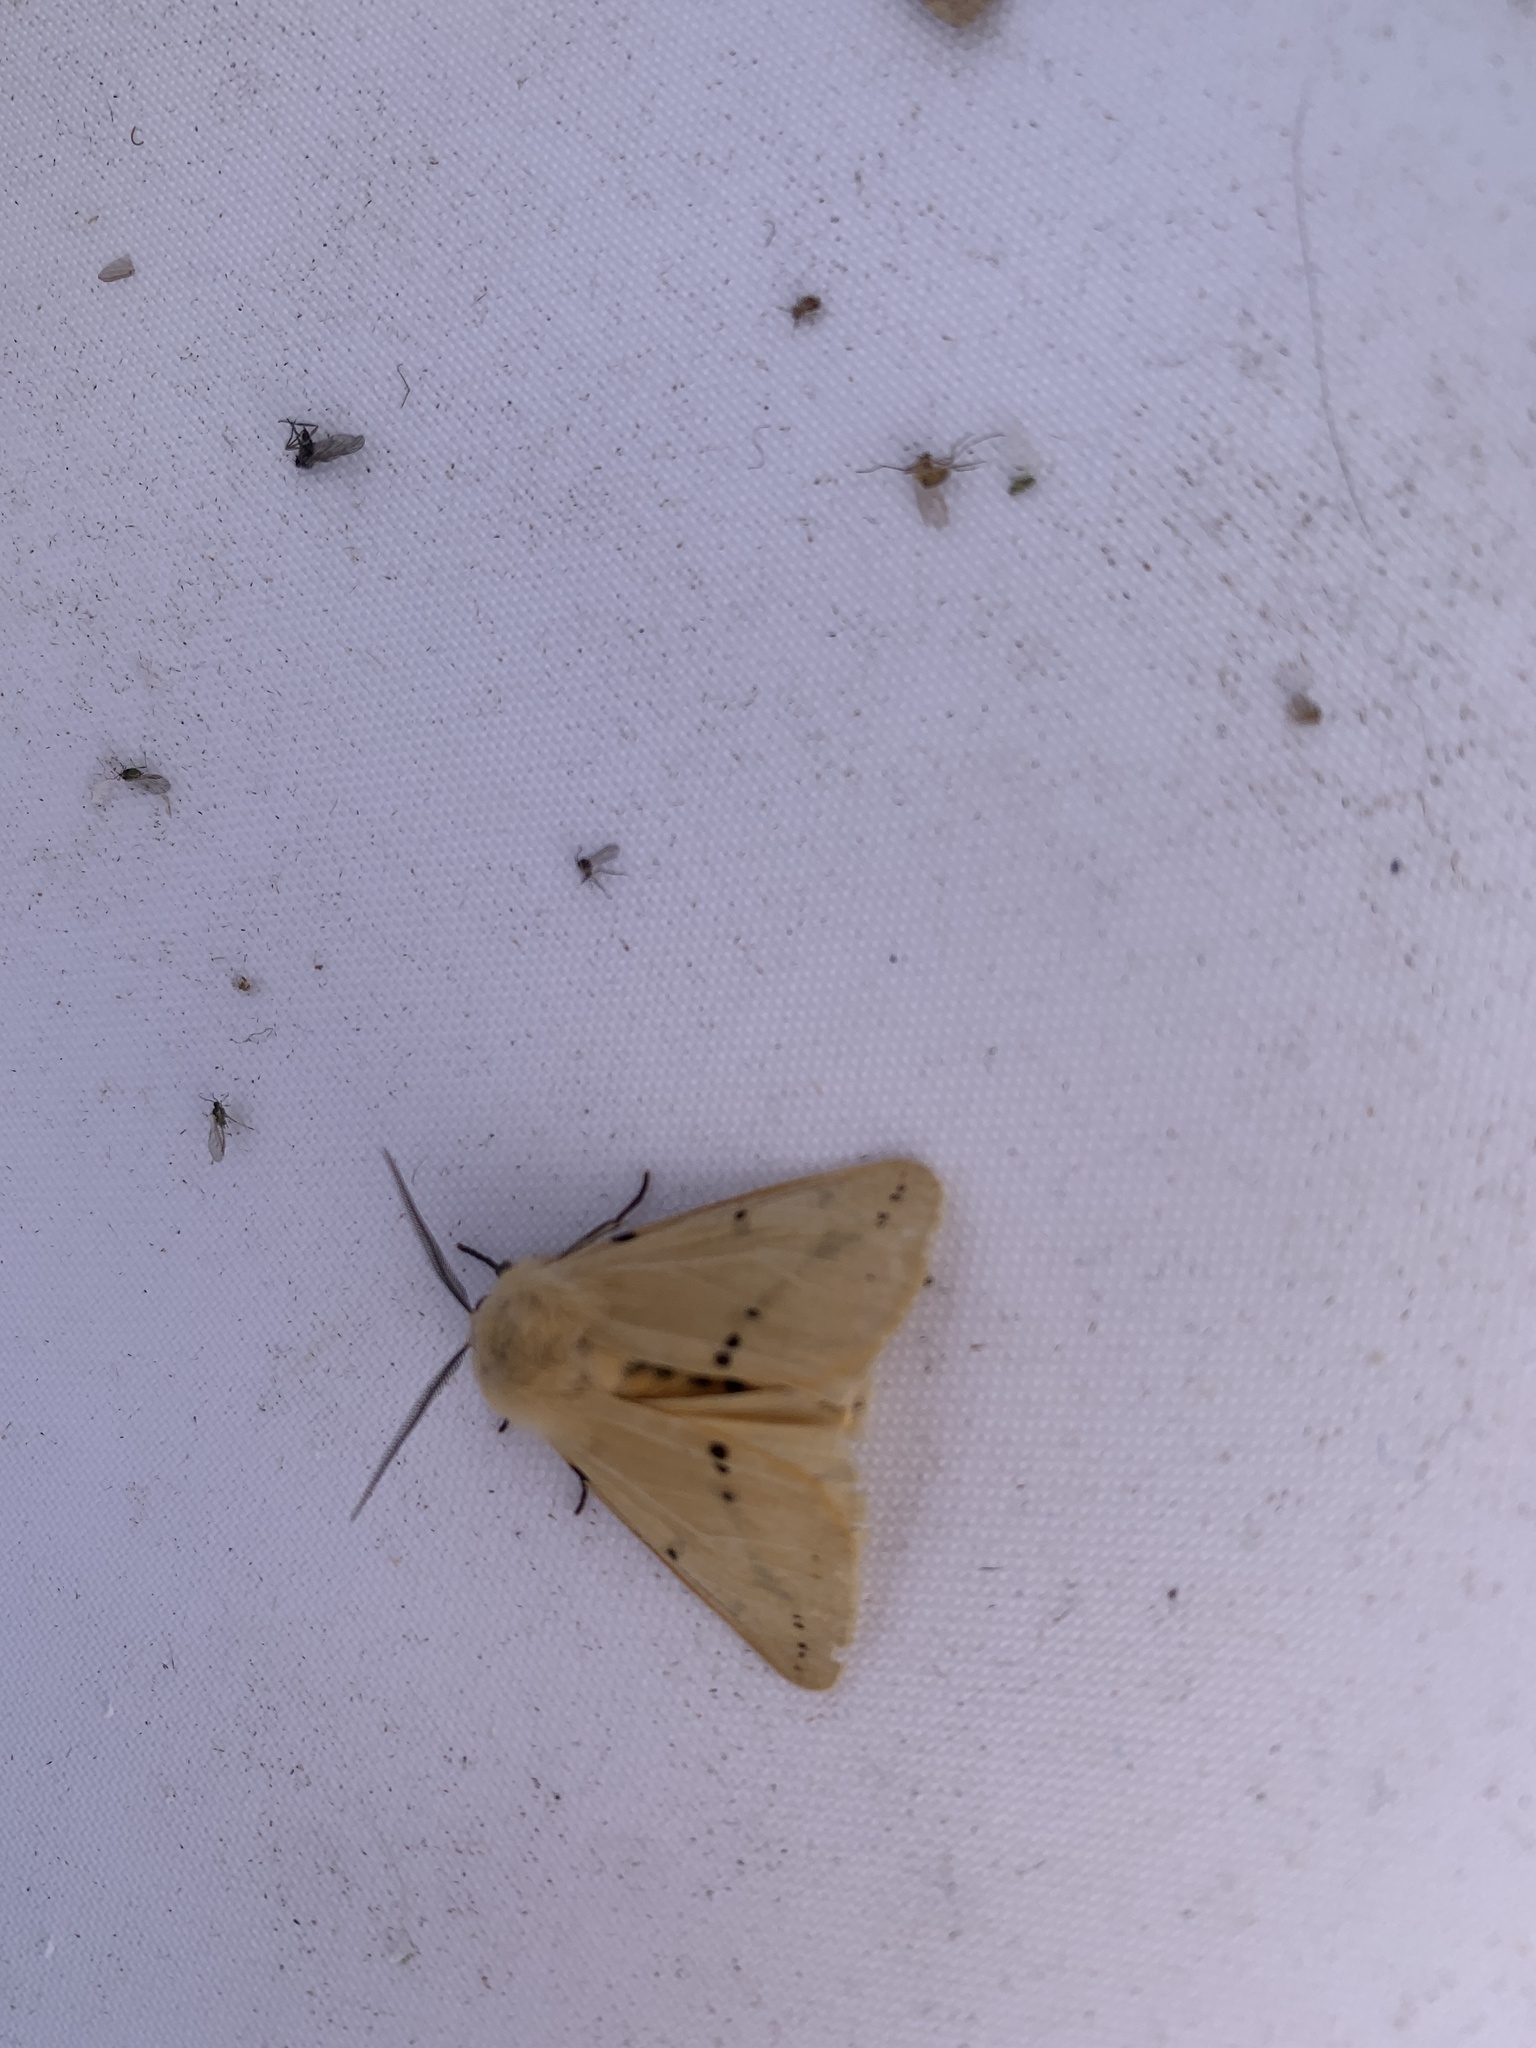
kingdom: Animalia
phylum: Arthropoda
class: Insecta
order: Lepidoptera
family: Erebidae
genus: Spilarctia
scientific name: Spilarctia lutea
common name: Buff ermine
